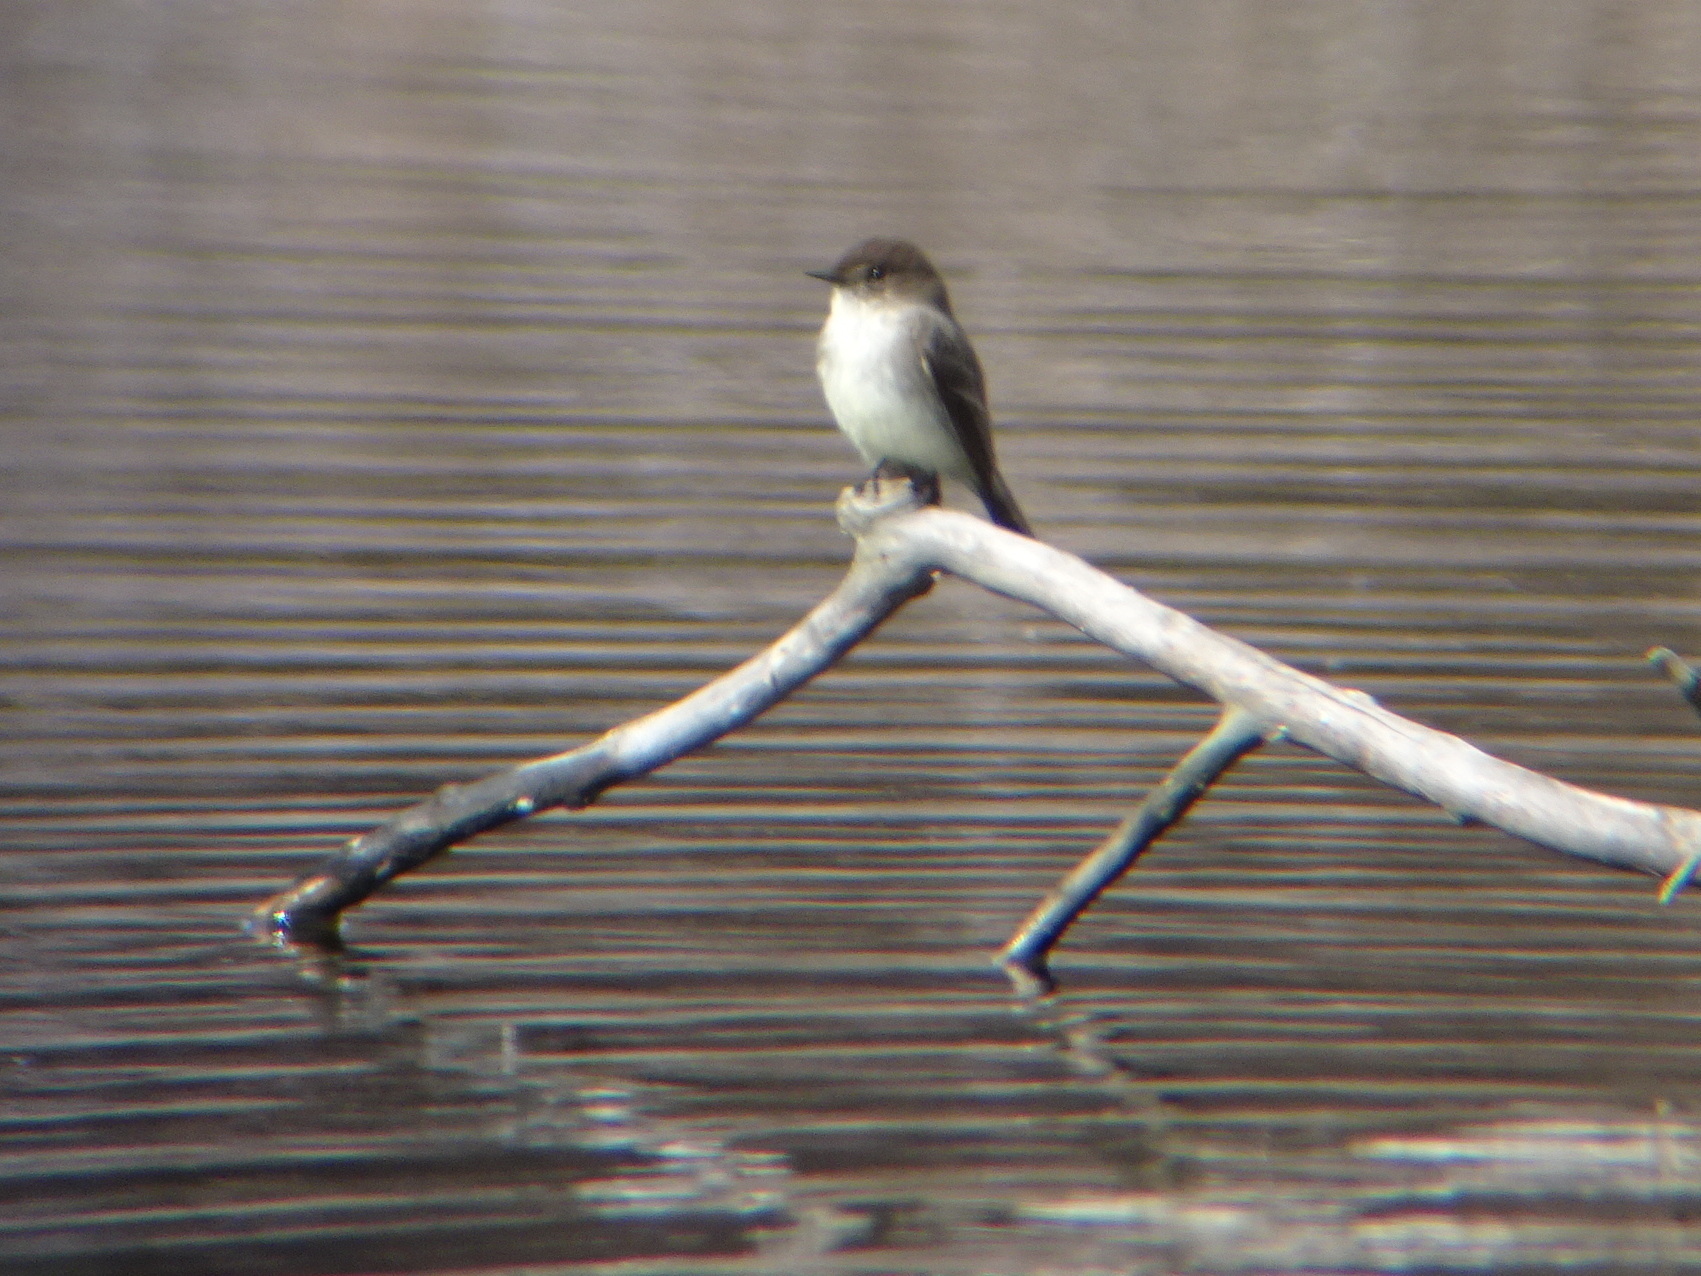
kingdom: Animalia
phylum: Chordata
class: Aves
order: Passeriformes
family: Tyrannidae
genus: Sayornis
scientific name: Sayornis phoebe
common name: Eastern phoebe
